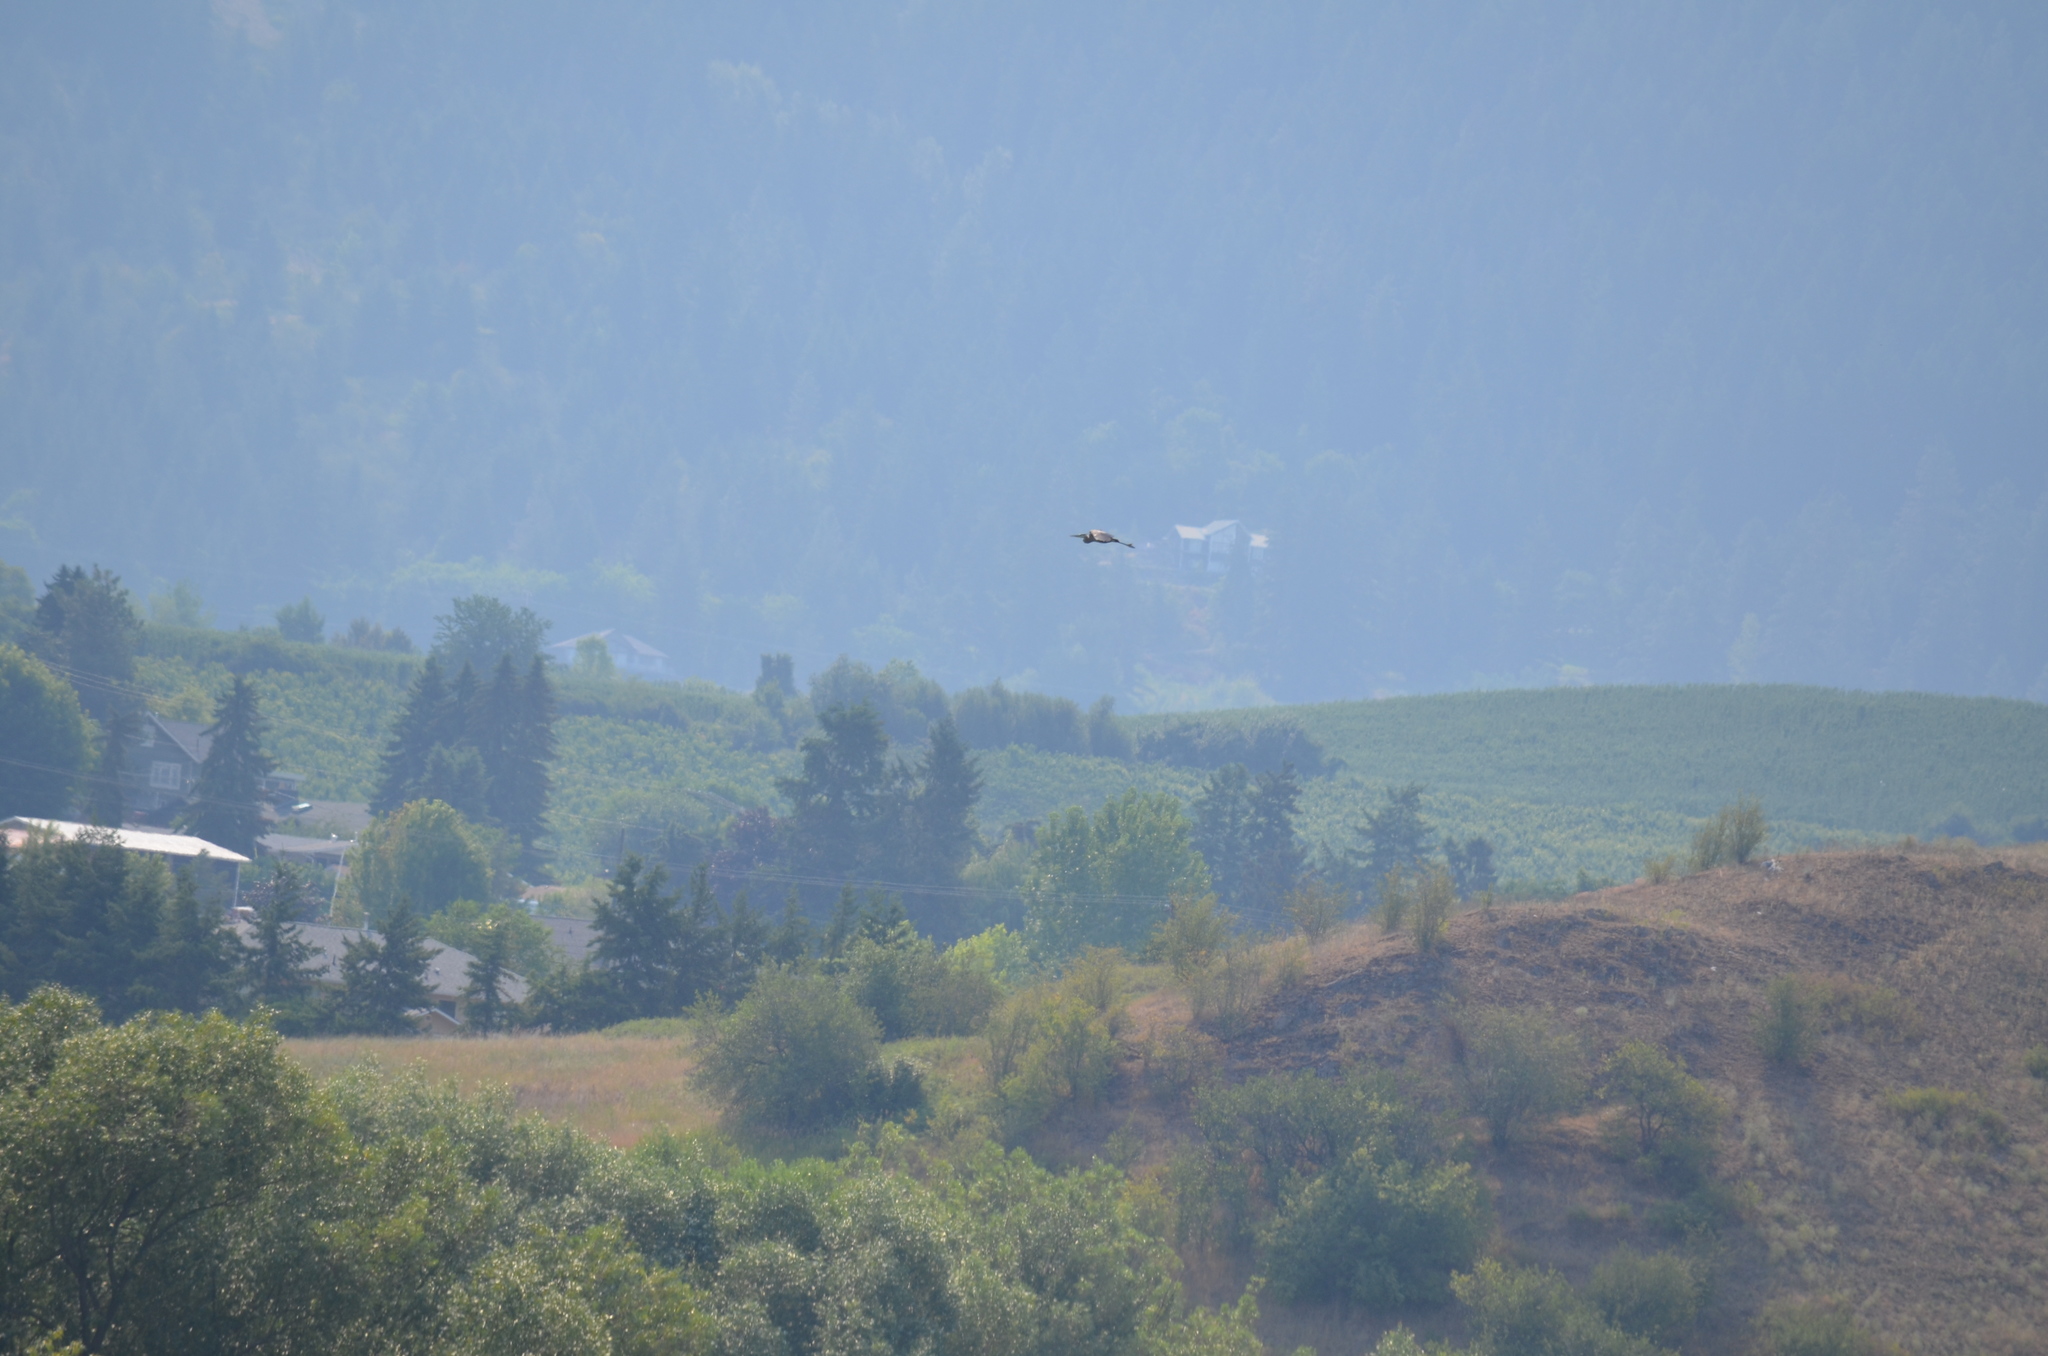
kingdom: Animalia
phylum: Chordata
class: Aves
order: Pelecaniformes
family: Ardeidae
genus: Ardea
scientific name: Ardea herodias
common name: Great blue heron
